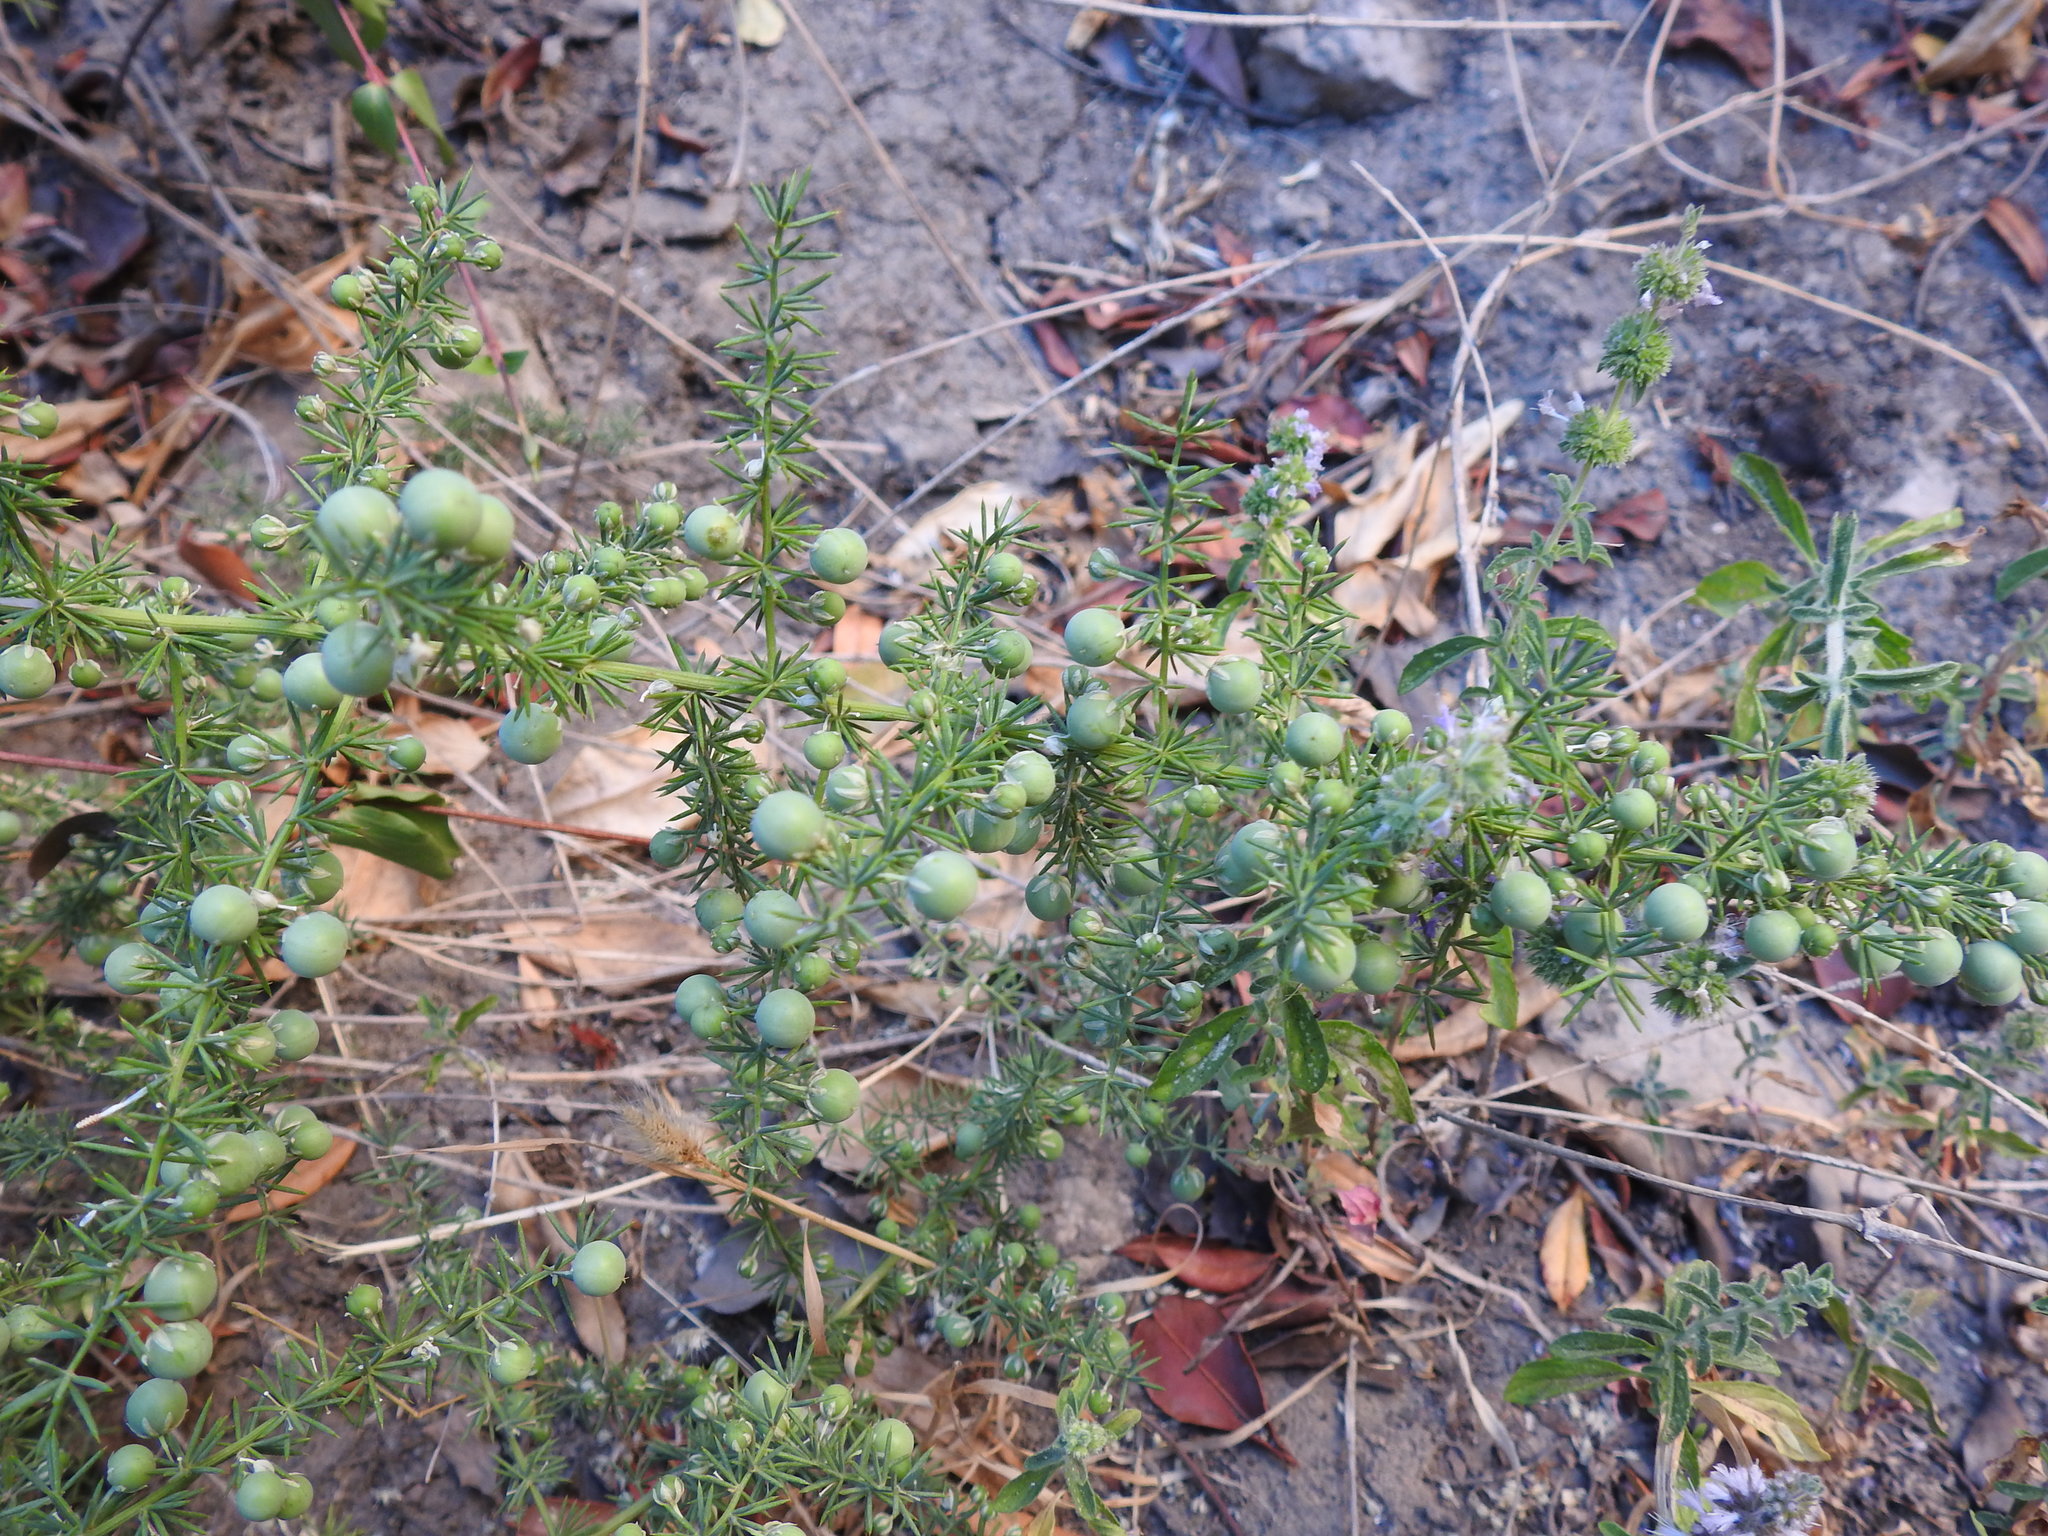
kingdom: Plantae
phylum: Tracheophyta
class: Liliopsida
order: Asparagales
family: Asparagaceae
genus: Asparagus
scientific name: Asparagus acutifolius
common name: Wild asparagus
